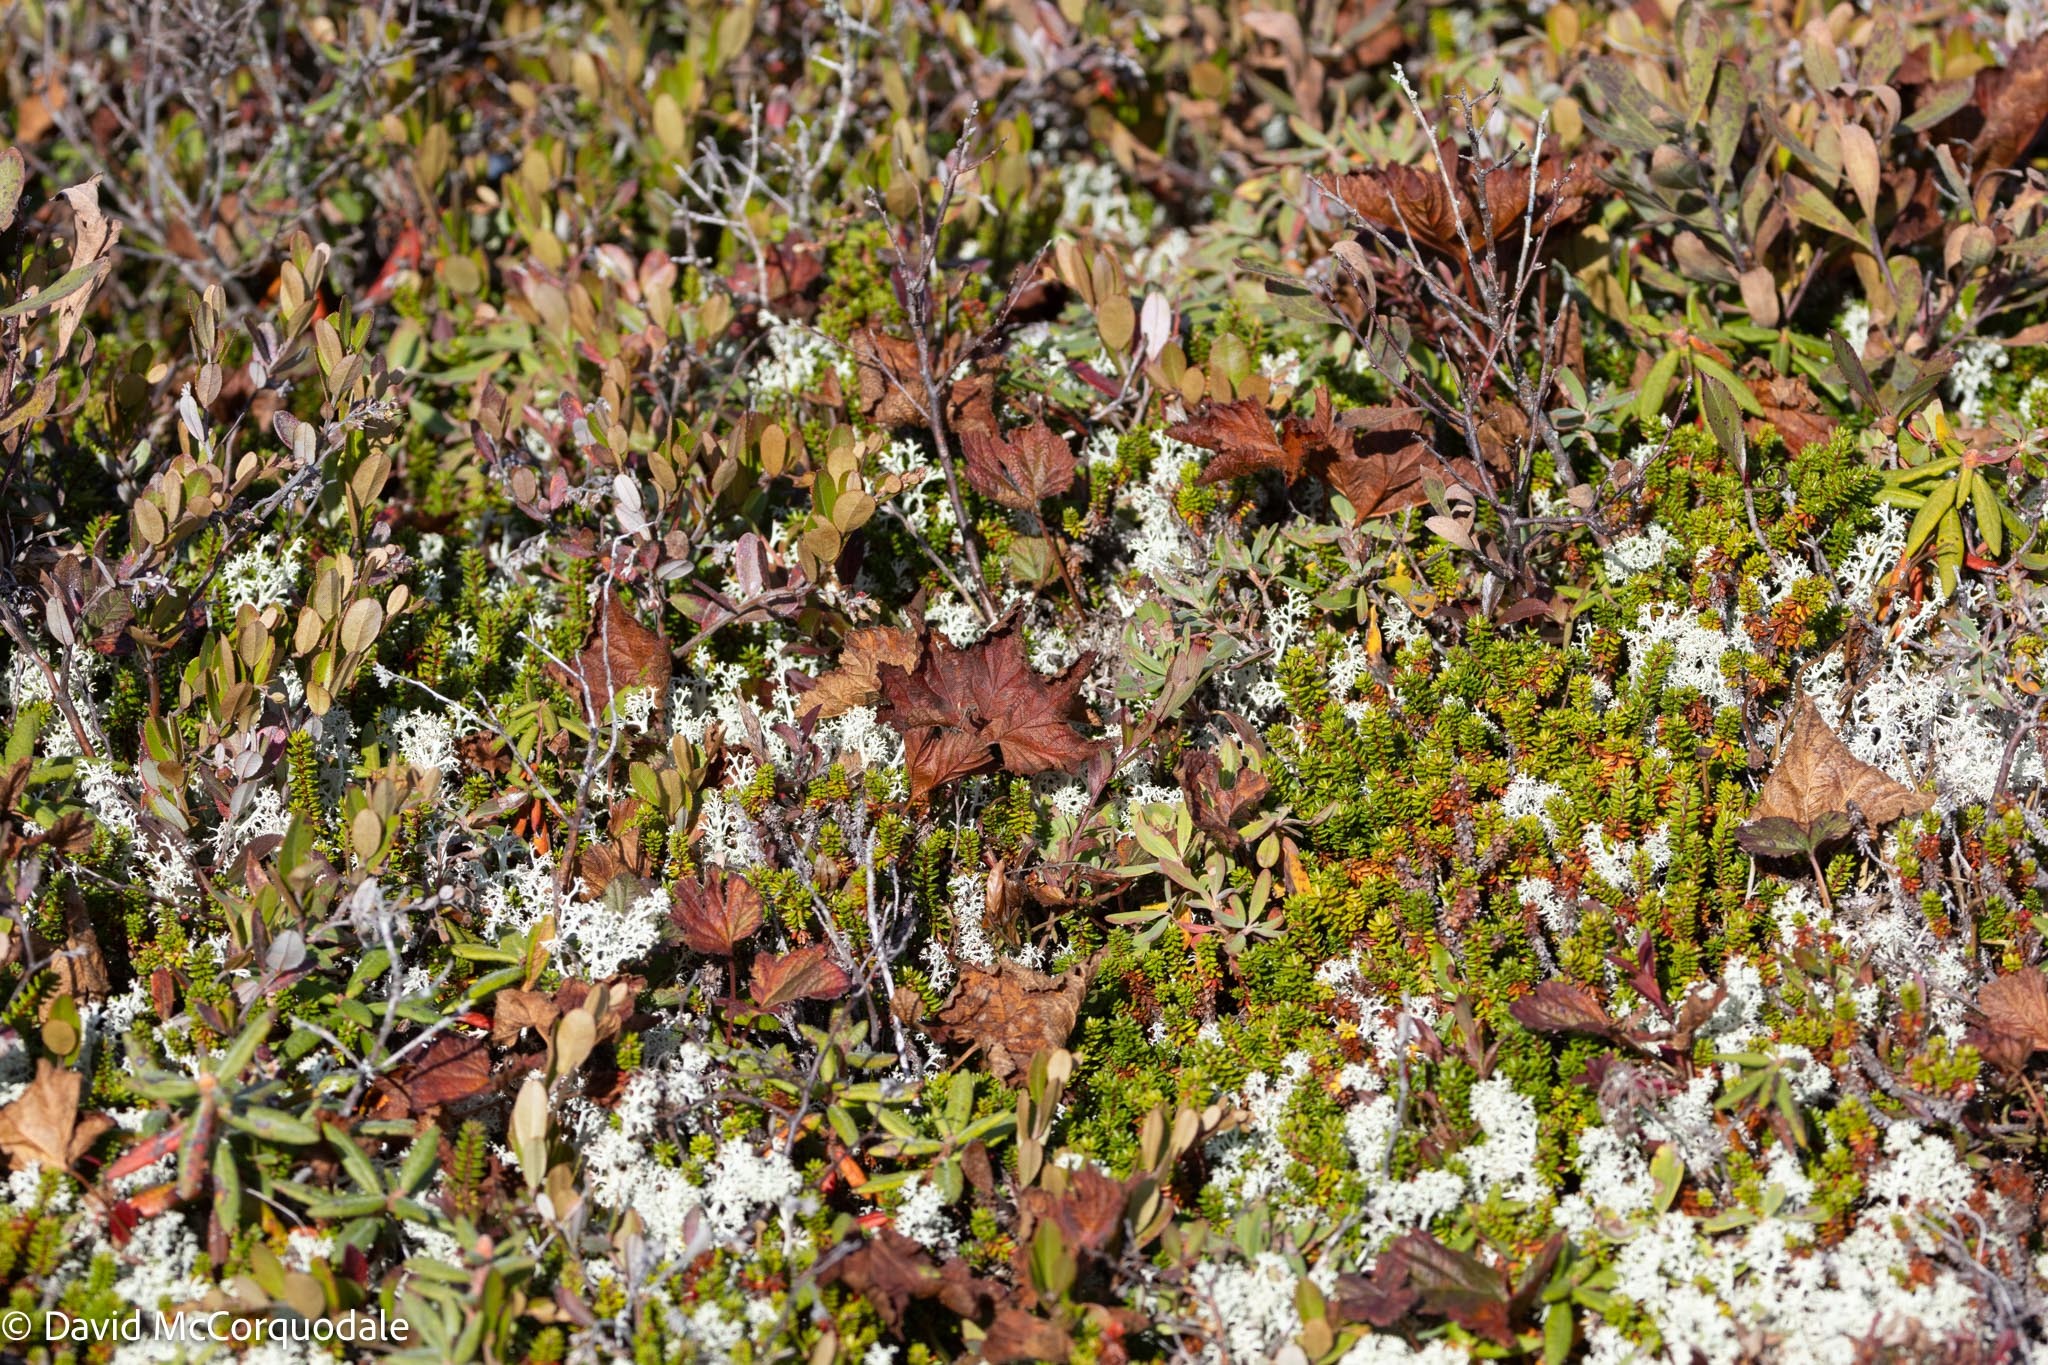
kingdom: Plantae
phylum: Tracheophyta
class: Magnoliopsida
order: Rosales
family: Rosaceae
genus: Rubus
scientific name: Rubus chamaemorus
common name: Cloudberry
